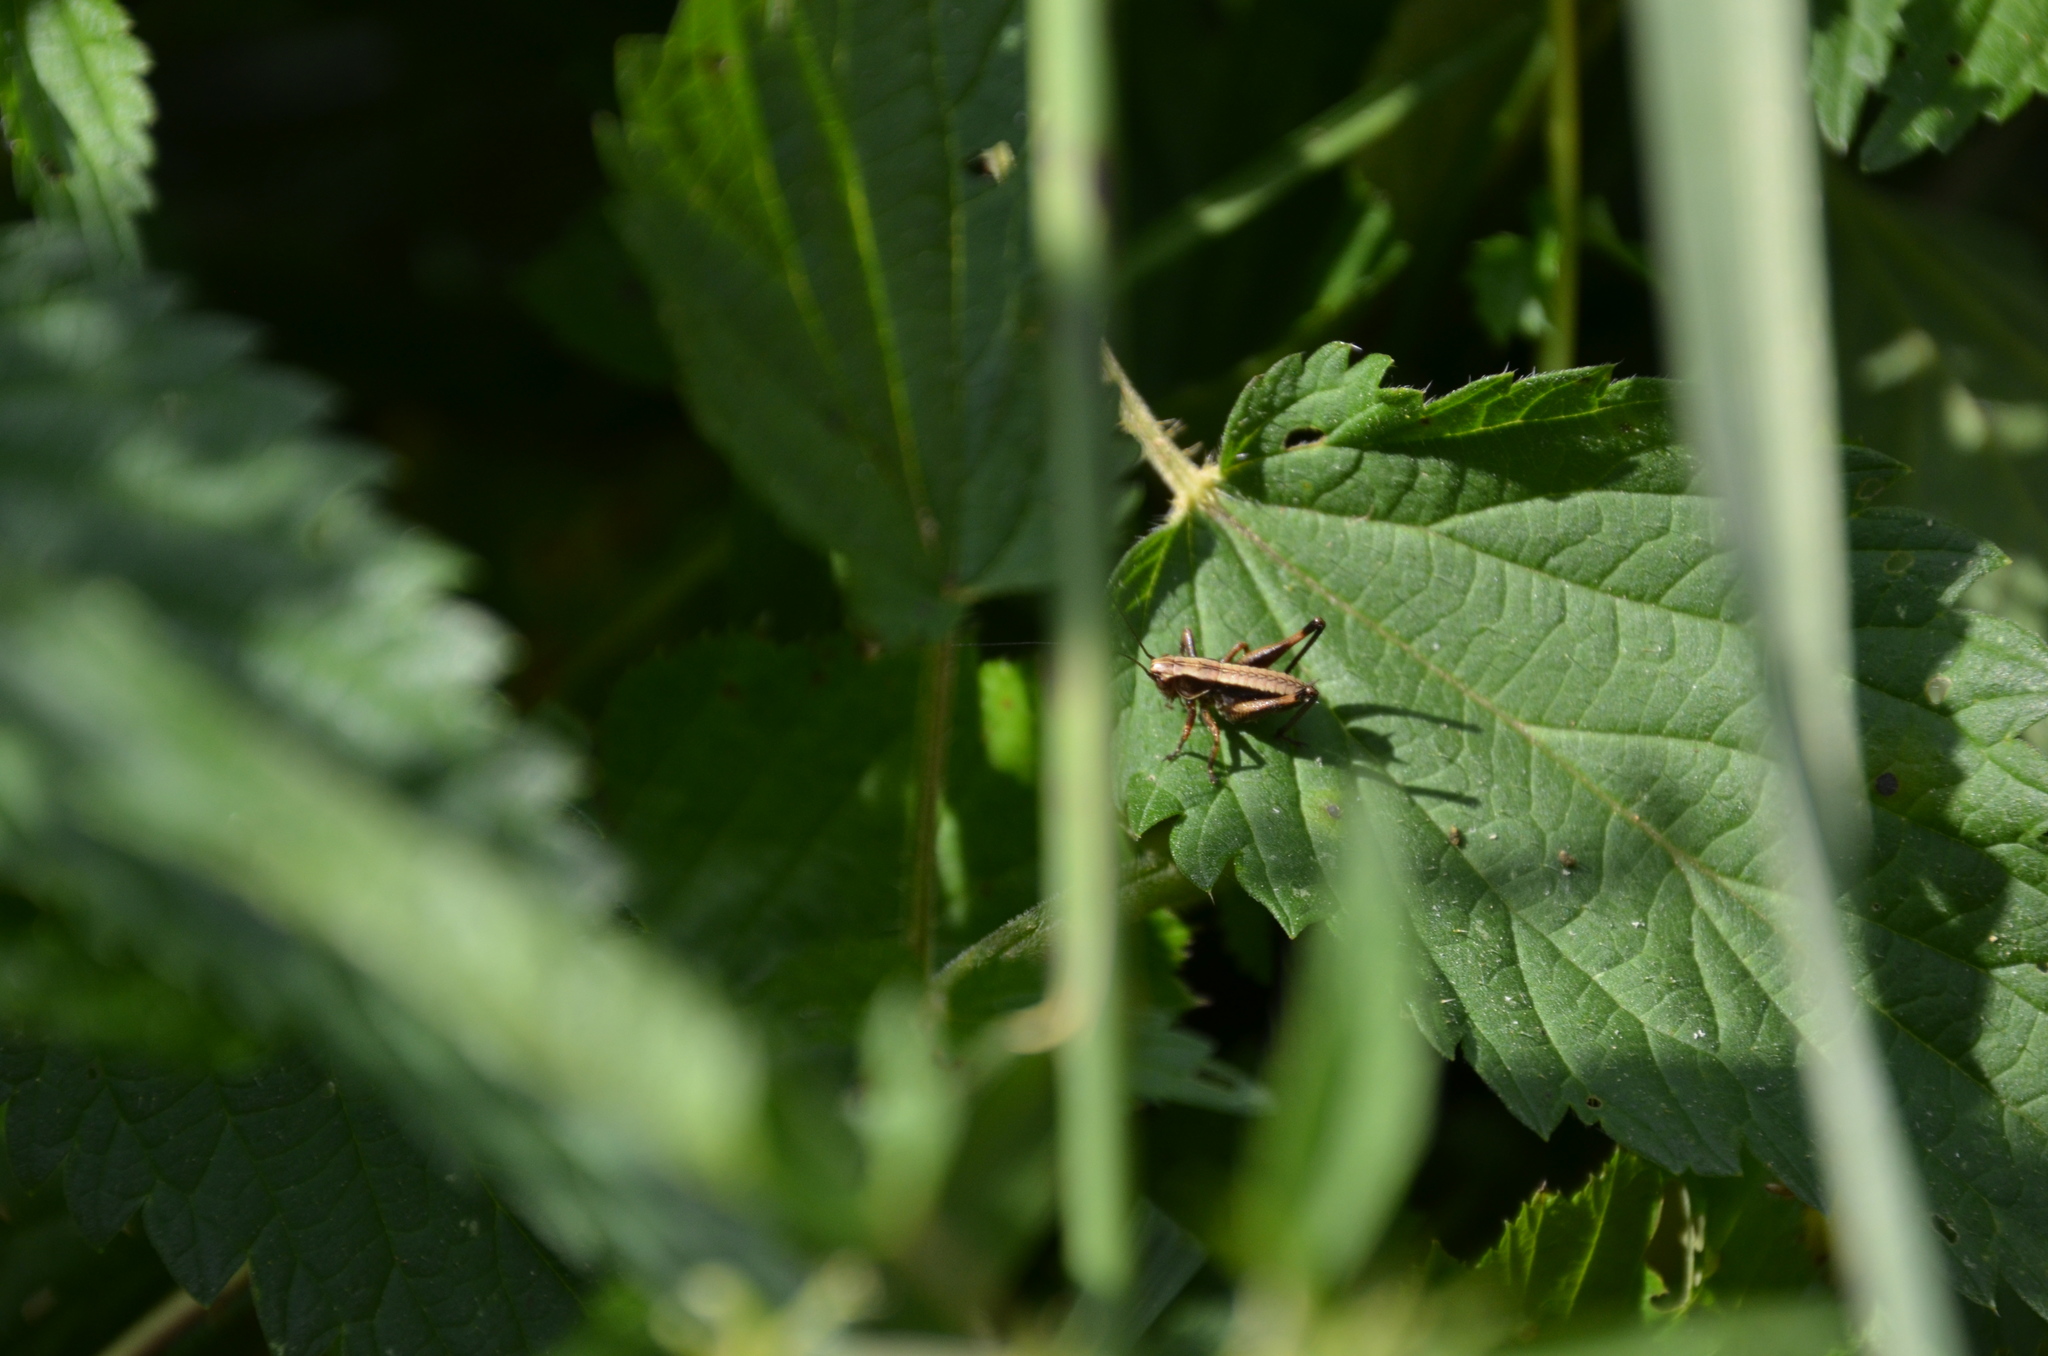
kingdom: Animalia
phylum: Arthropoda
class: Insecta
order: Orthoptera
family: Tettigoniidae
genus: Pholidoptera
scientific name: Pholidoptera griseoaptera
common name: Dark bush-cricket
